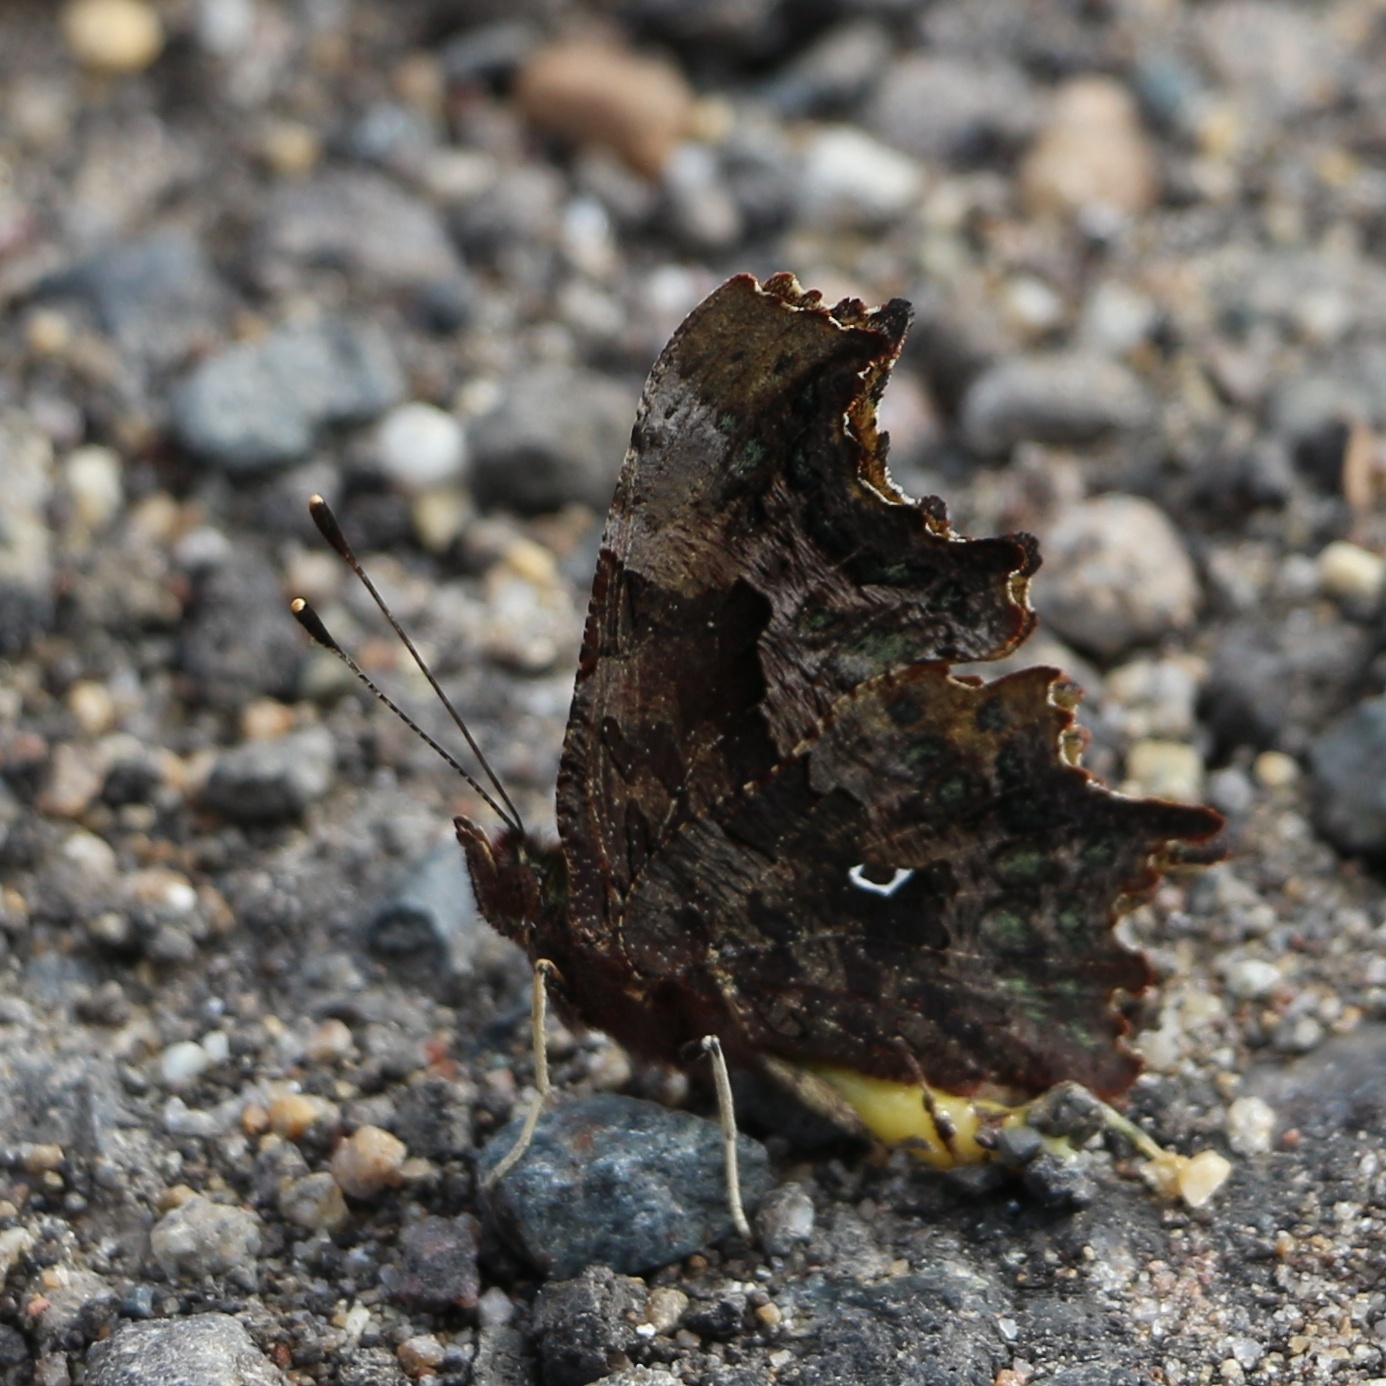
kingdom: Animalia
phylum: Arthropoda
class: Insecta
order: Lepidoptera
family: Nymphalidae
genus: Polygonia
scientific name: Polygonia c-album
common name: Comma
